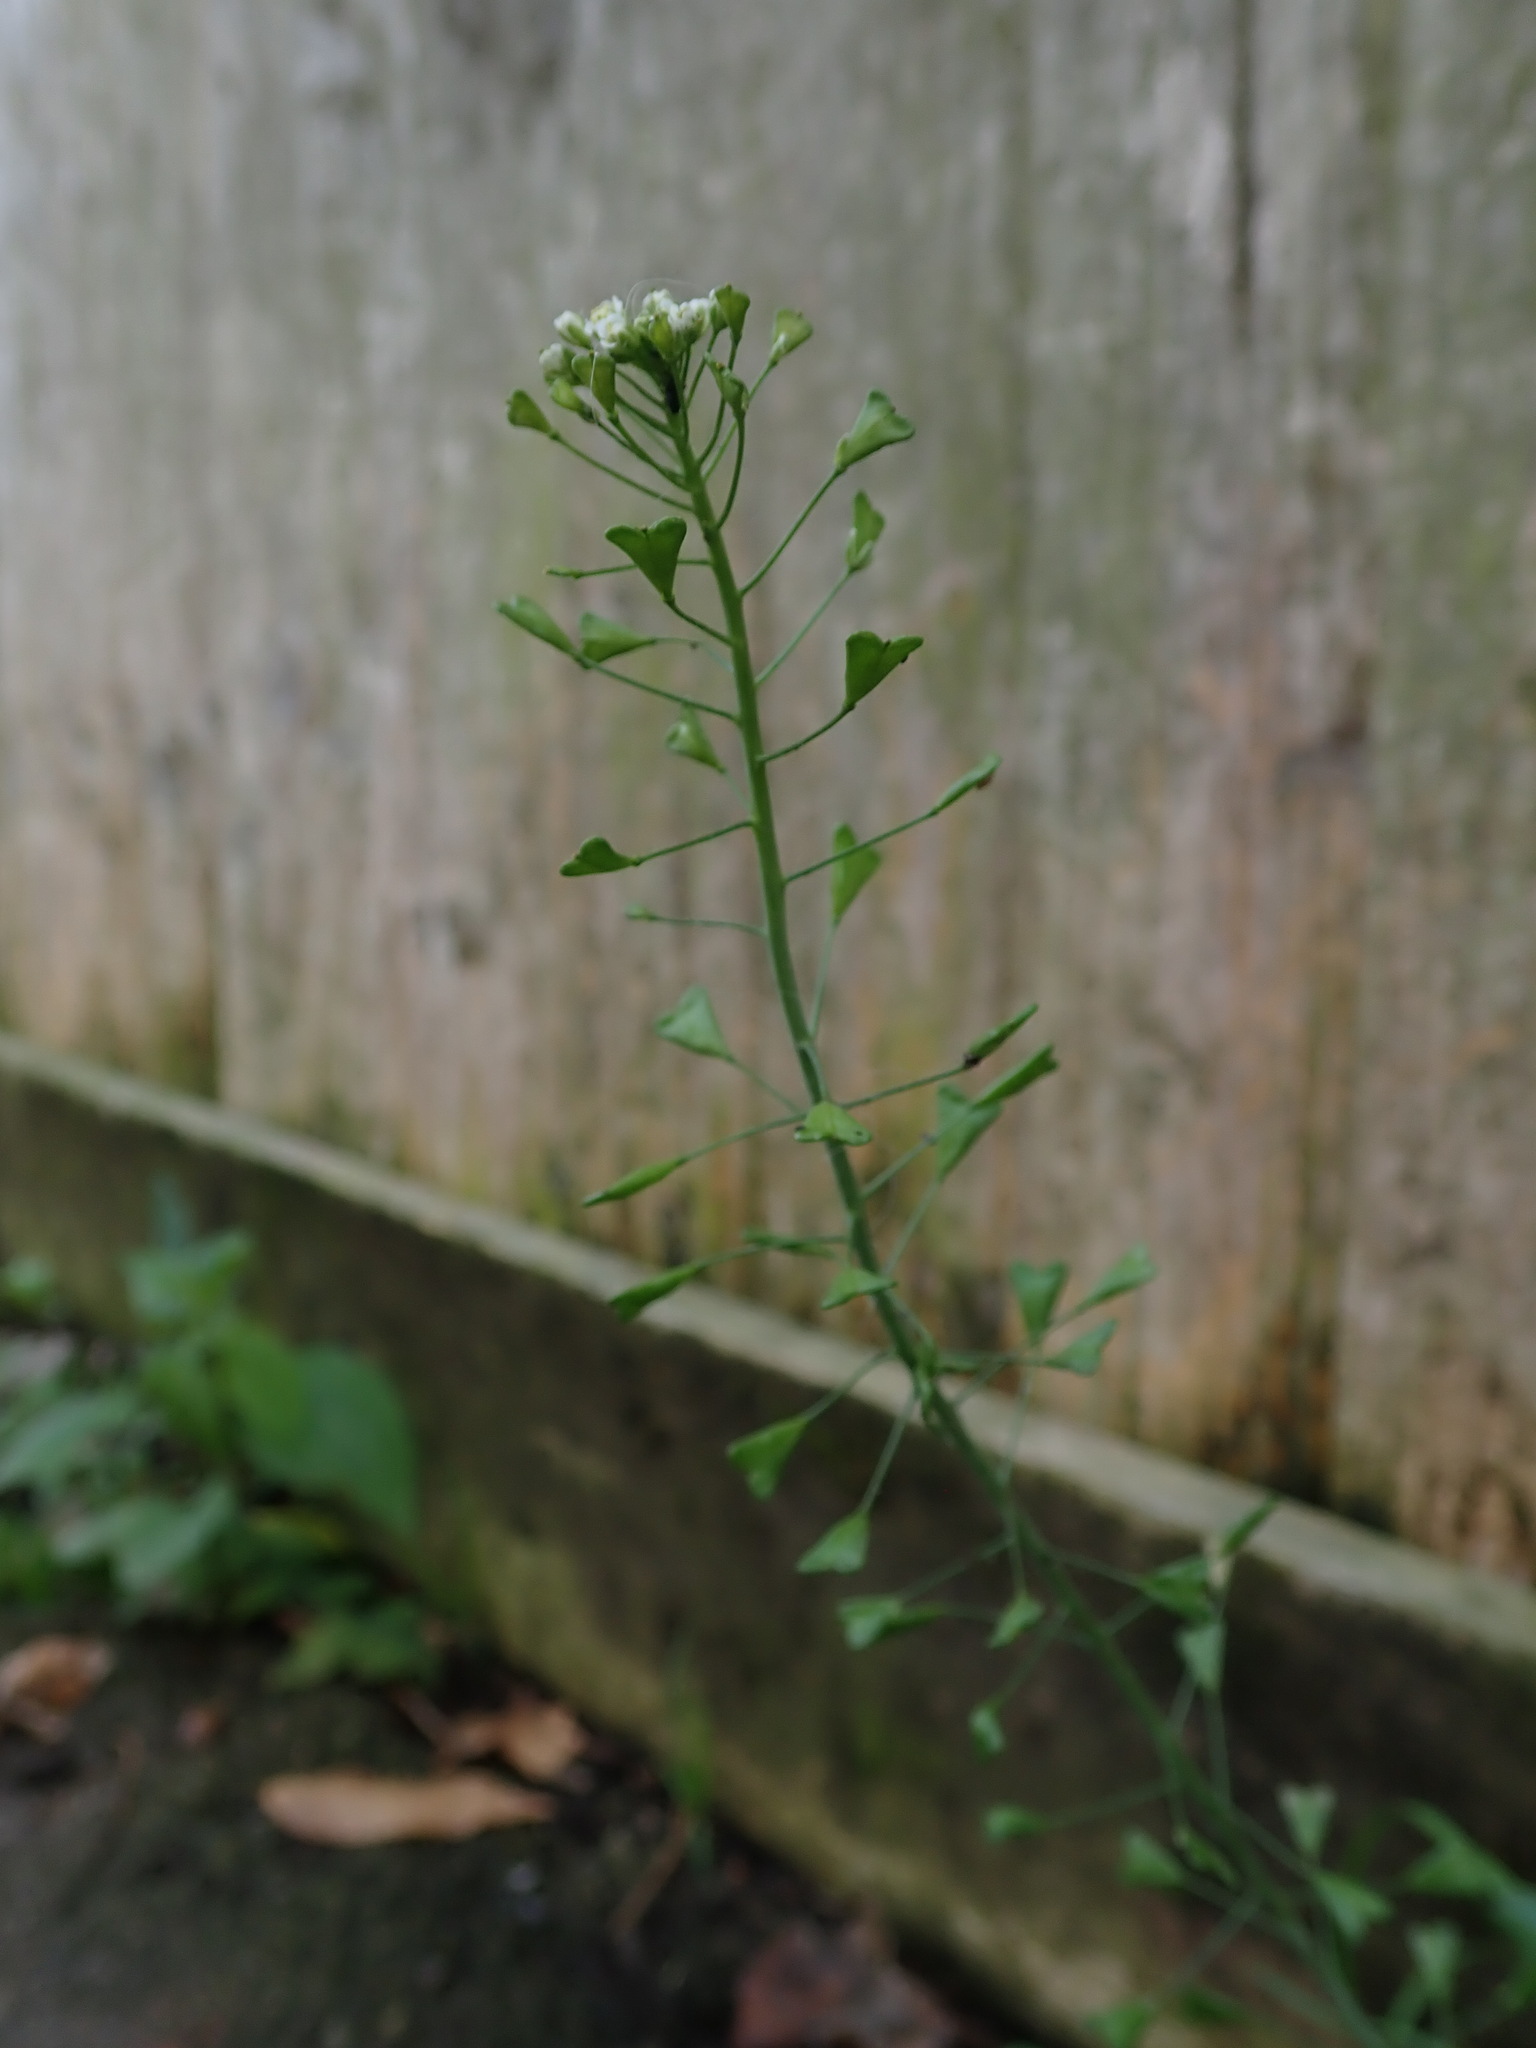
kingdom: Plantae
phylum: Tracheophyta
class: Magnoliopsida
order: Brassicales
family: Brassicaceae
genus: Capsella
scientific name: Capsella bursa-pastoris
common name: Shepherd's purse
